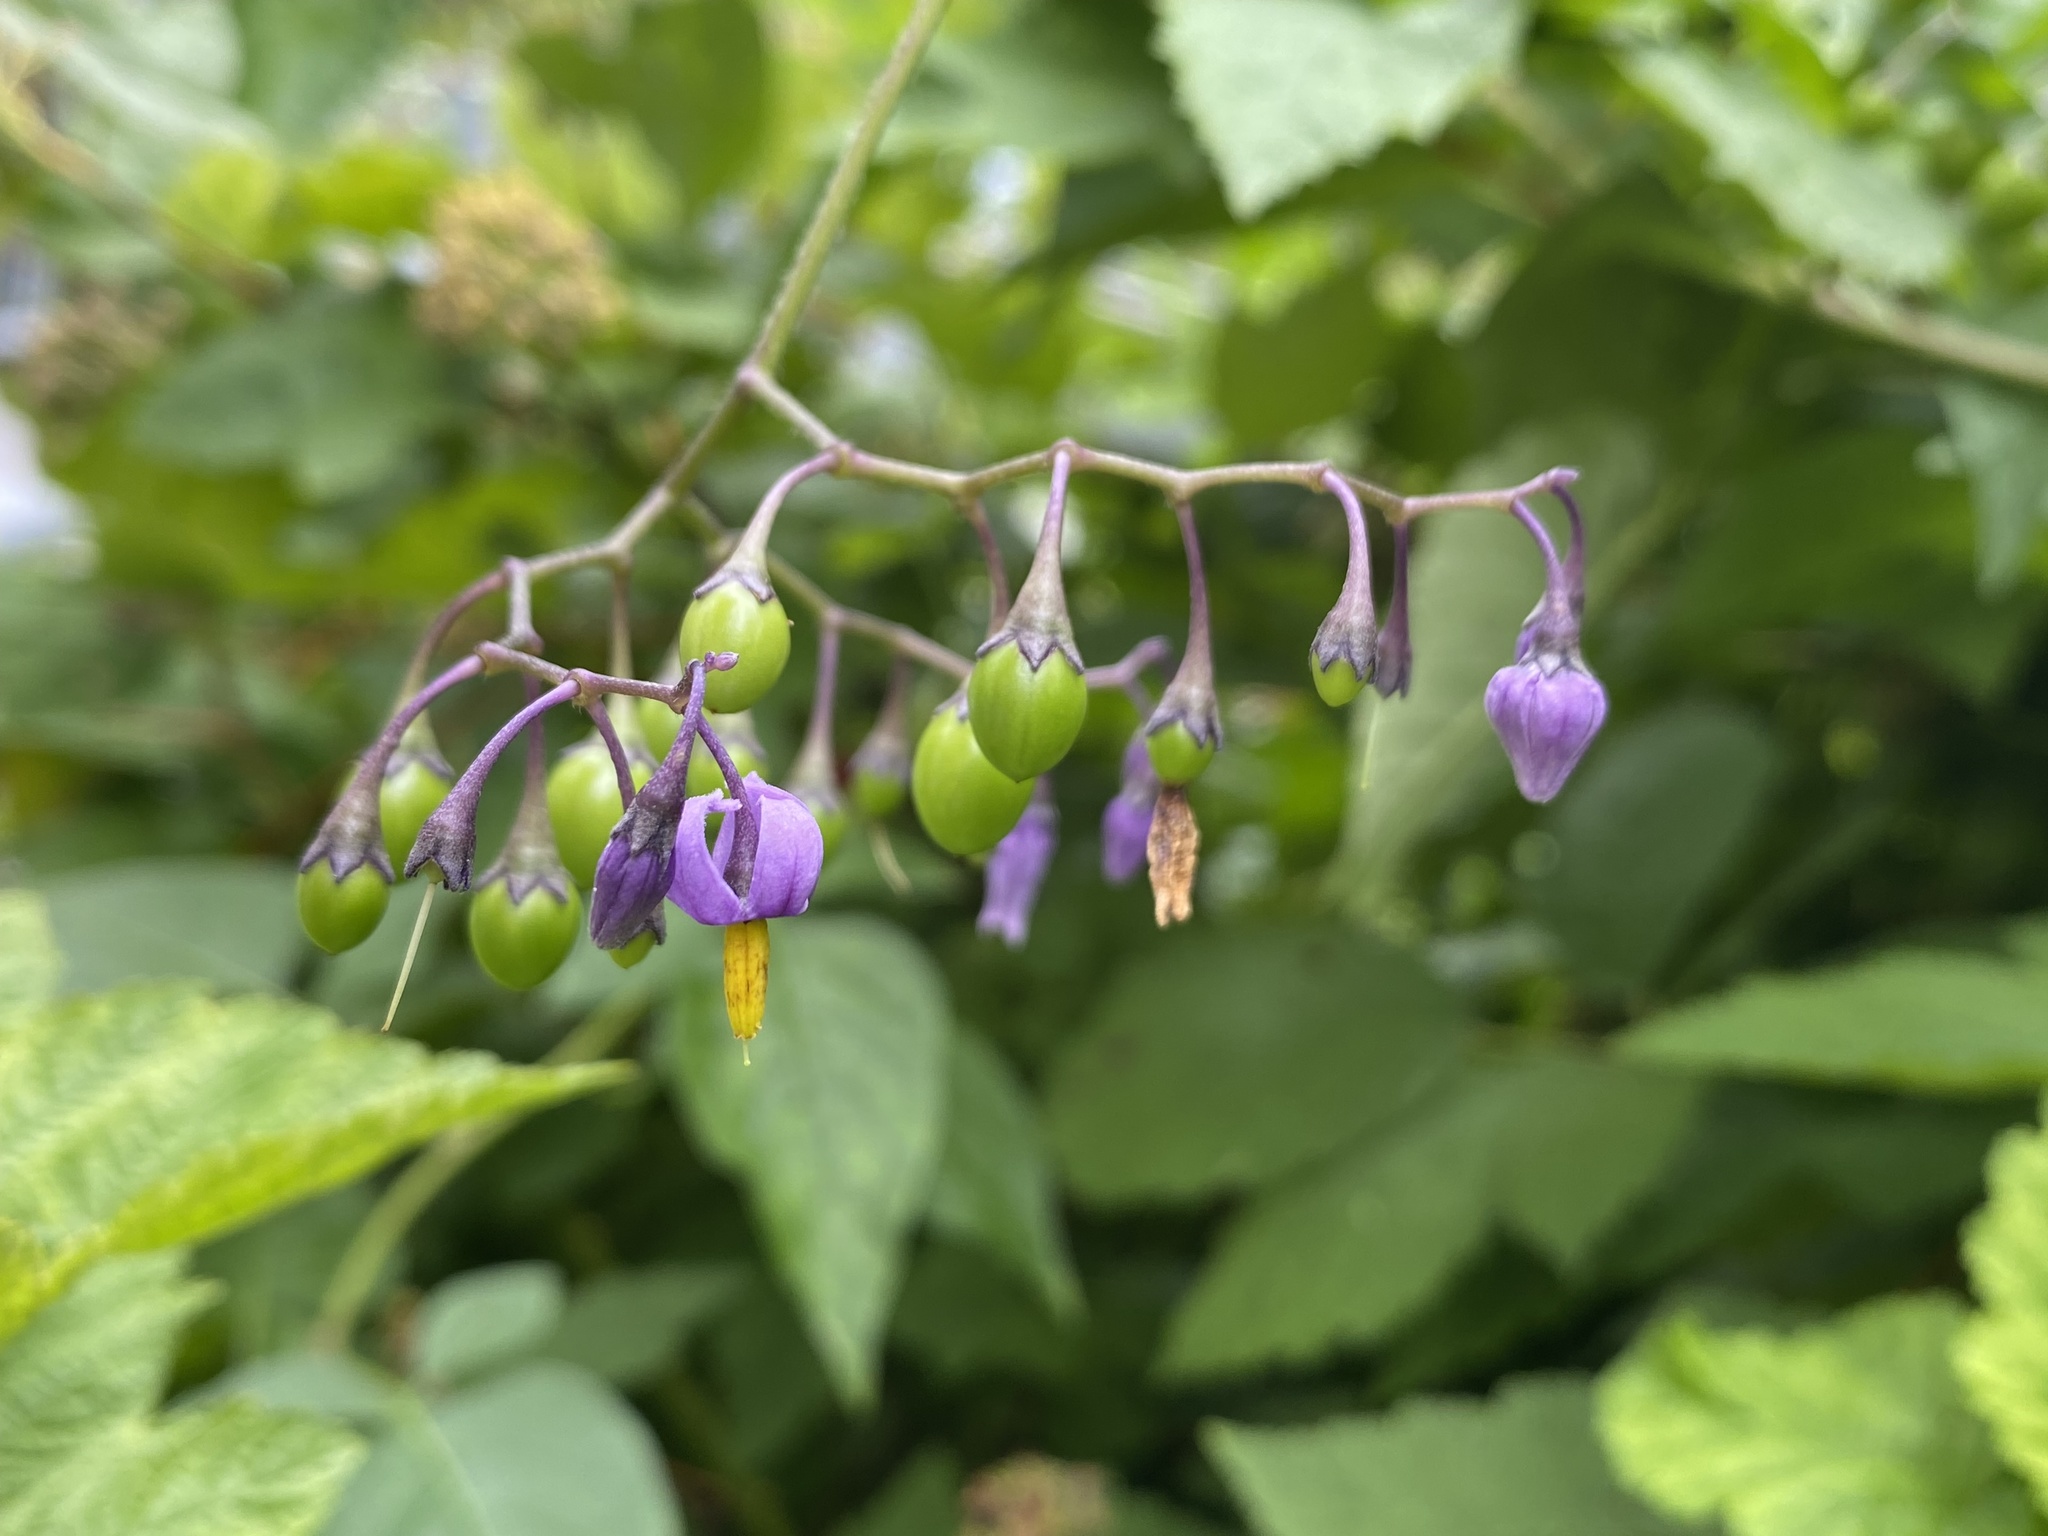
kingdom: Plantae
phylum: Tracheophyta
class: Magnoliopsida
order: Solanales
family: Solanaceae
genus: Solanum
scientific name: Solanum dulcamara
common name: Climbing nightshade
